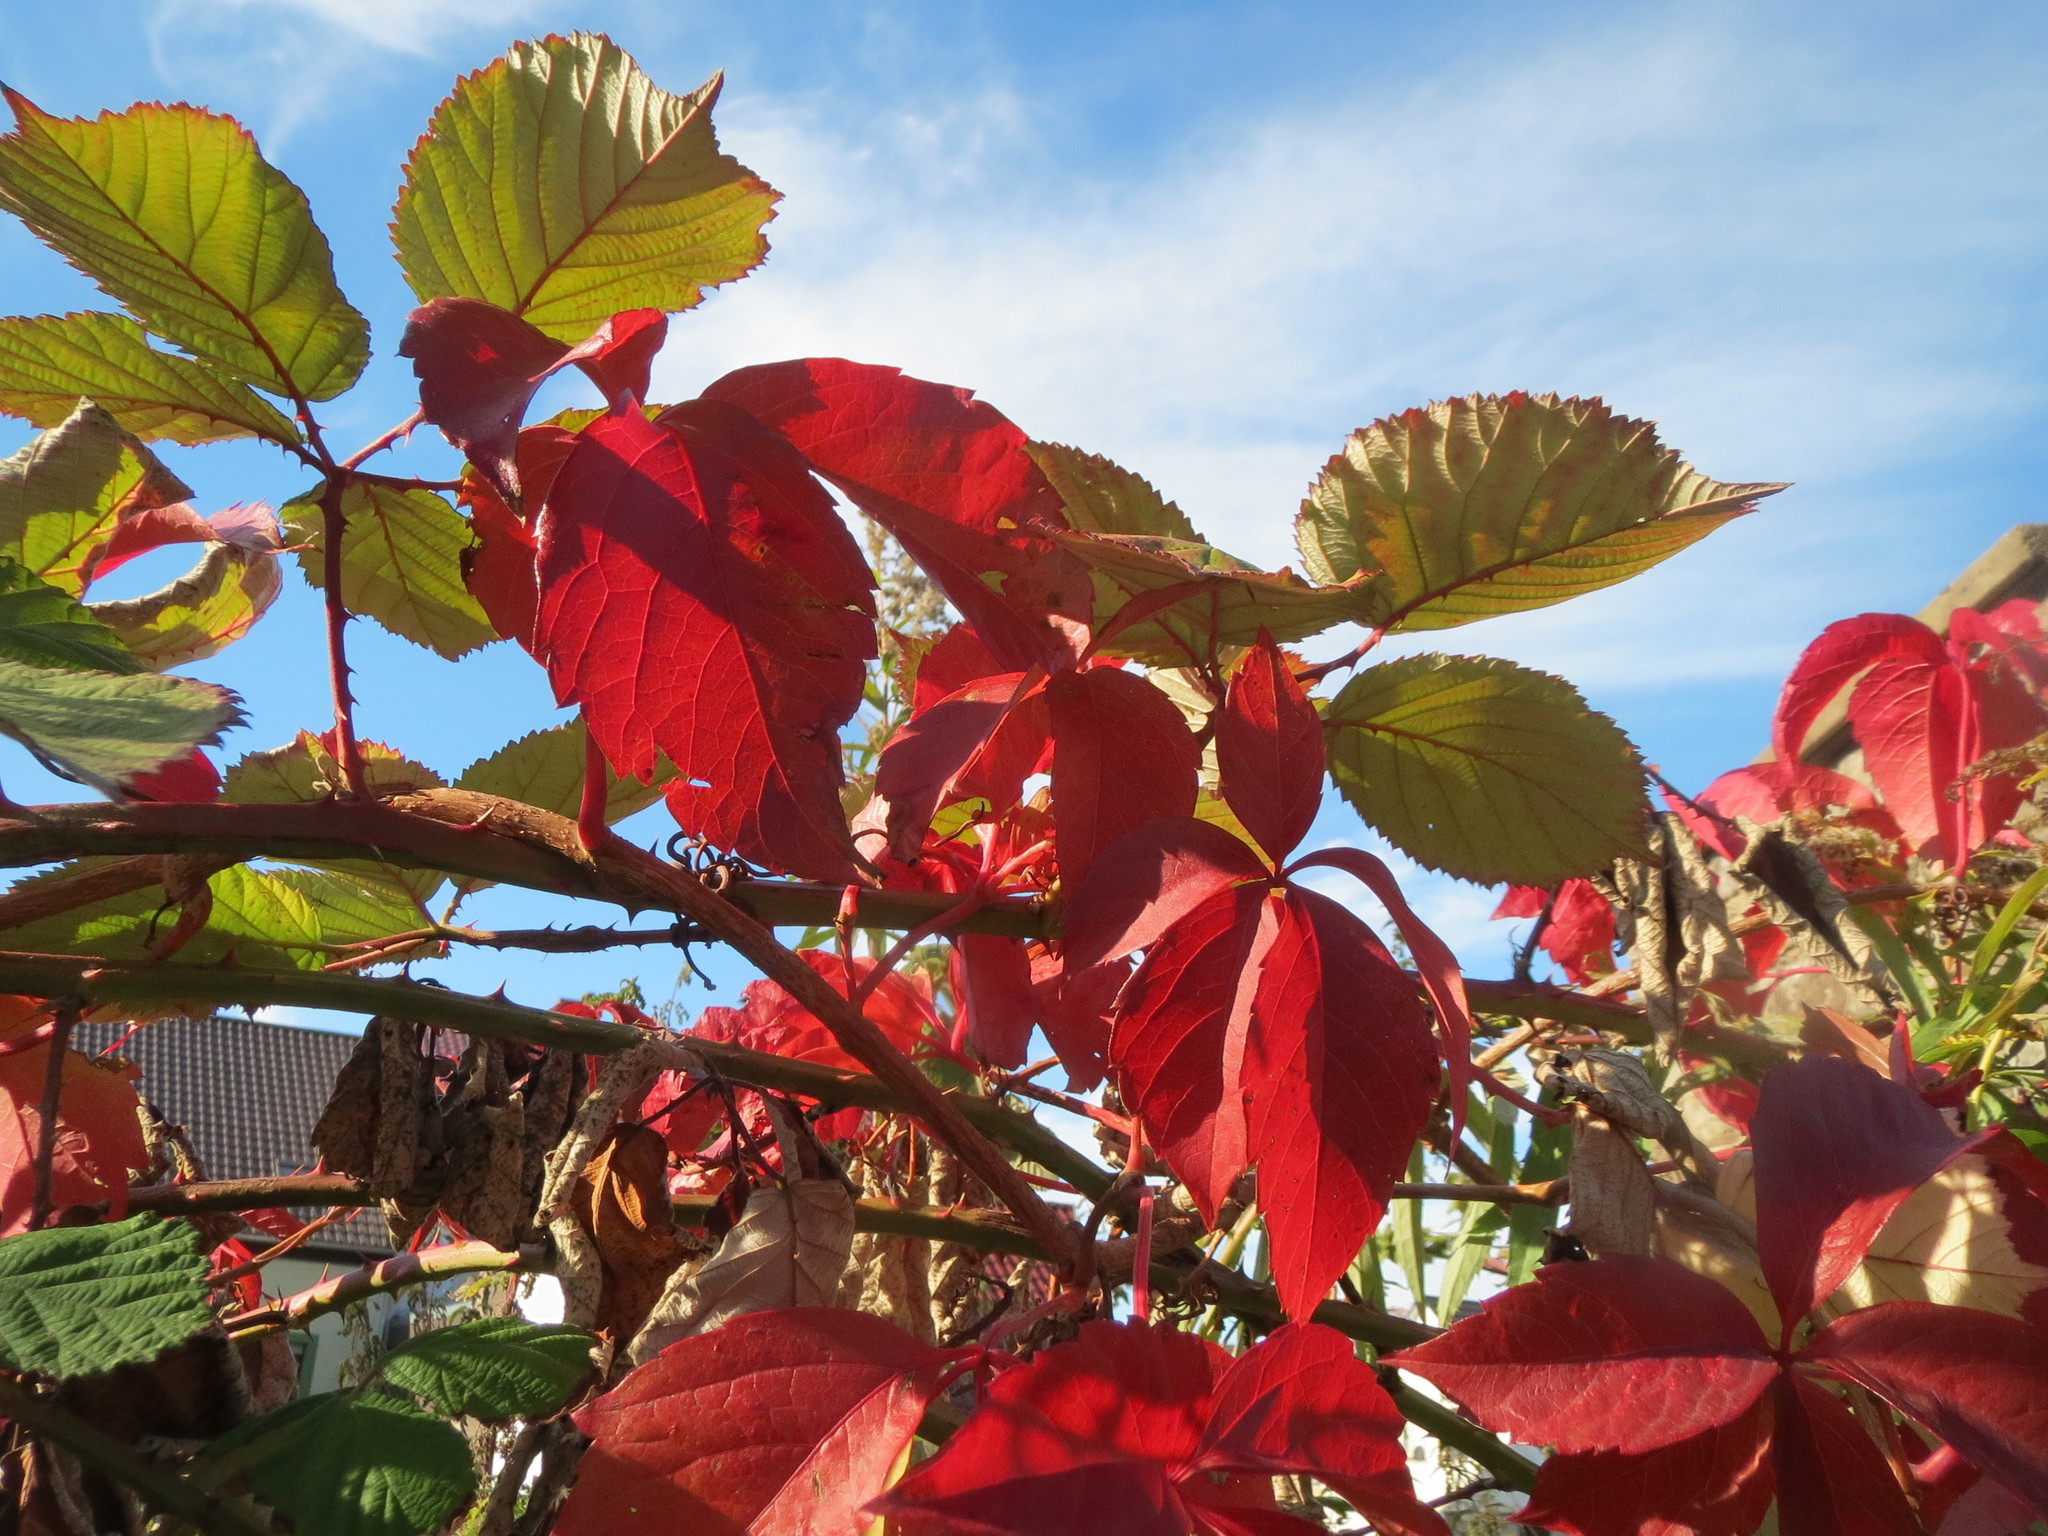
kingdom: Plantae
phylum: Tracheophyta
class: Magnoliopsida
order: Vitales
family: Vitaceae
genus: Parthenocissus
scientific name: Parthenocissus quinquefolia
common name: Virginia-creeper
